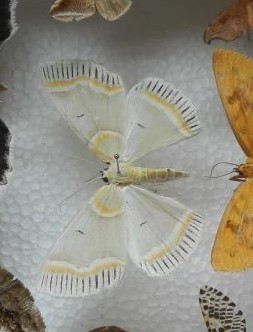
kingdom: Animalia
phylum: Arthropoda
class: Insecta
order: Lepidoptera
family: Geometridae
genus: Iotaphora
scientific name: Iotaphora admirabilis
